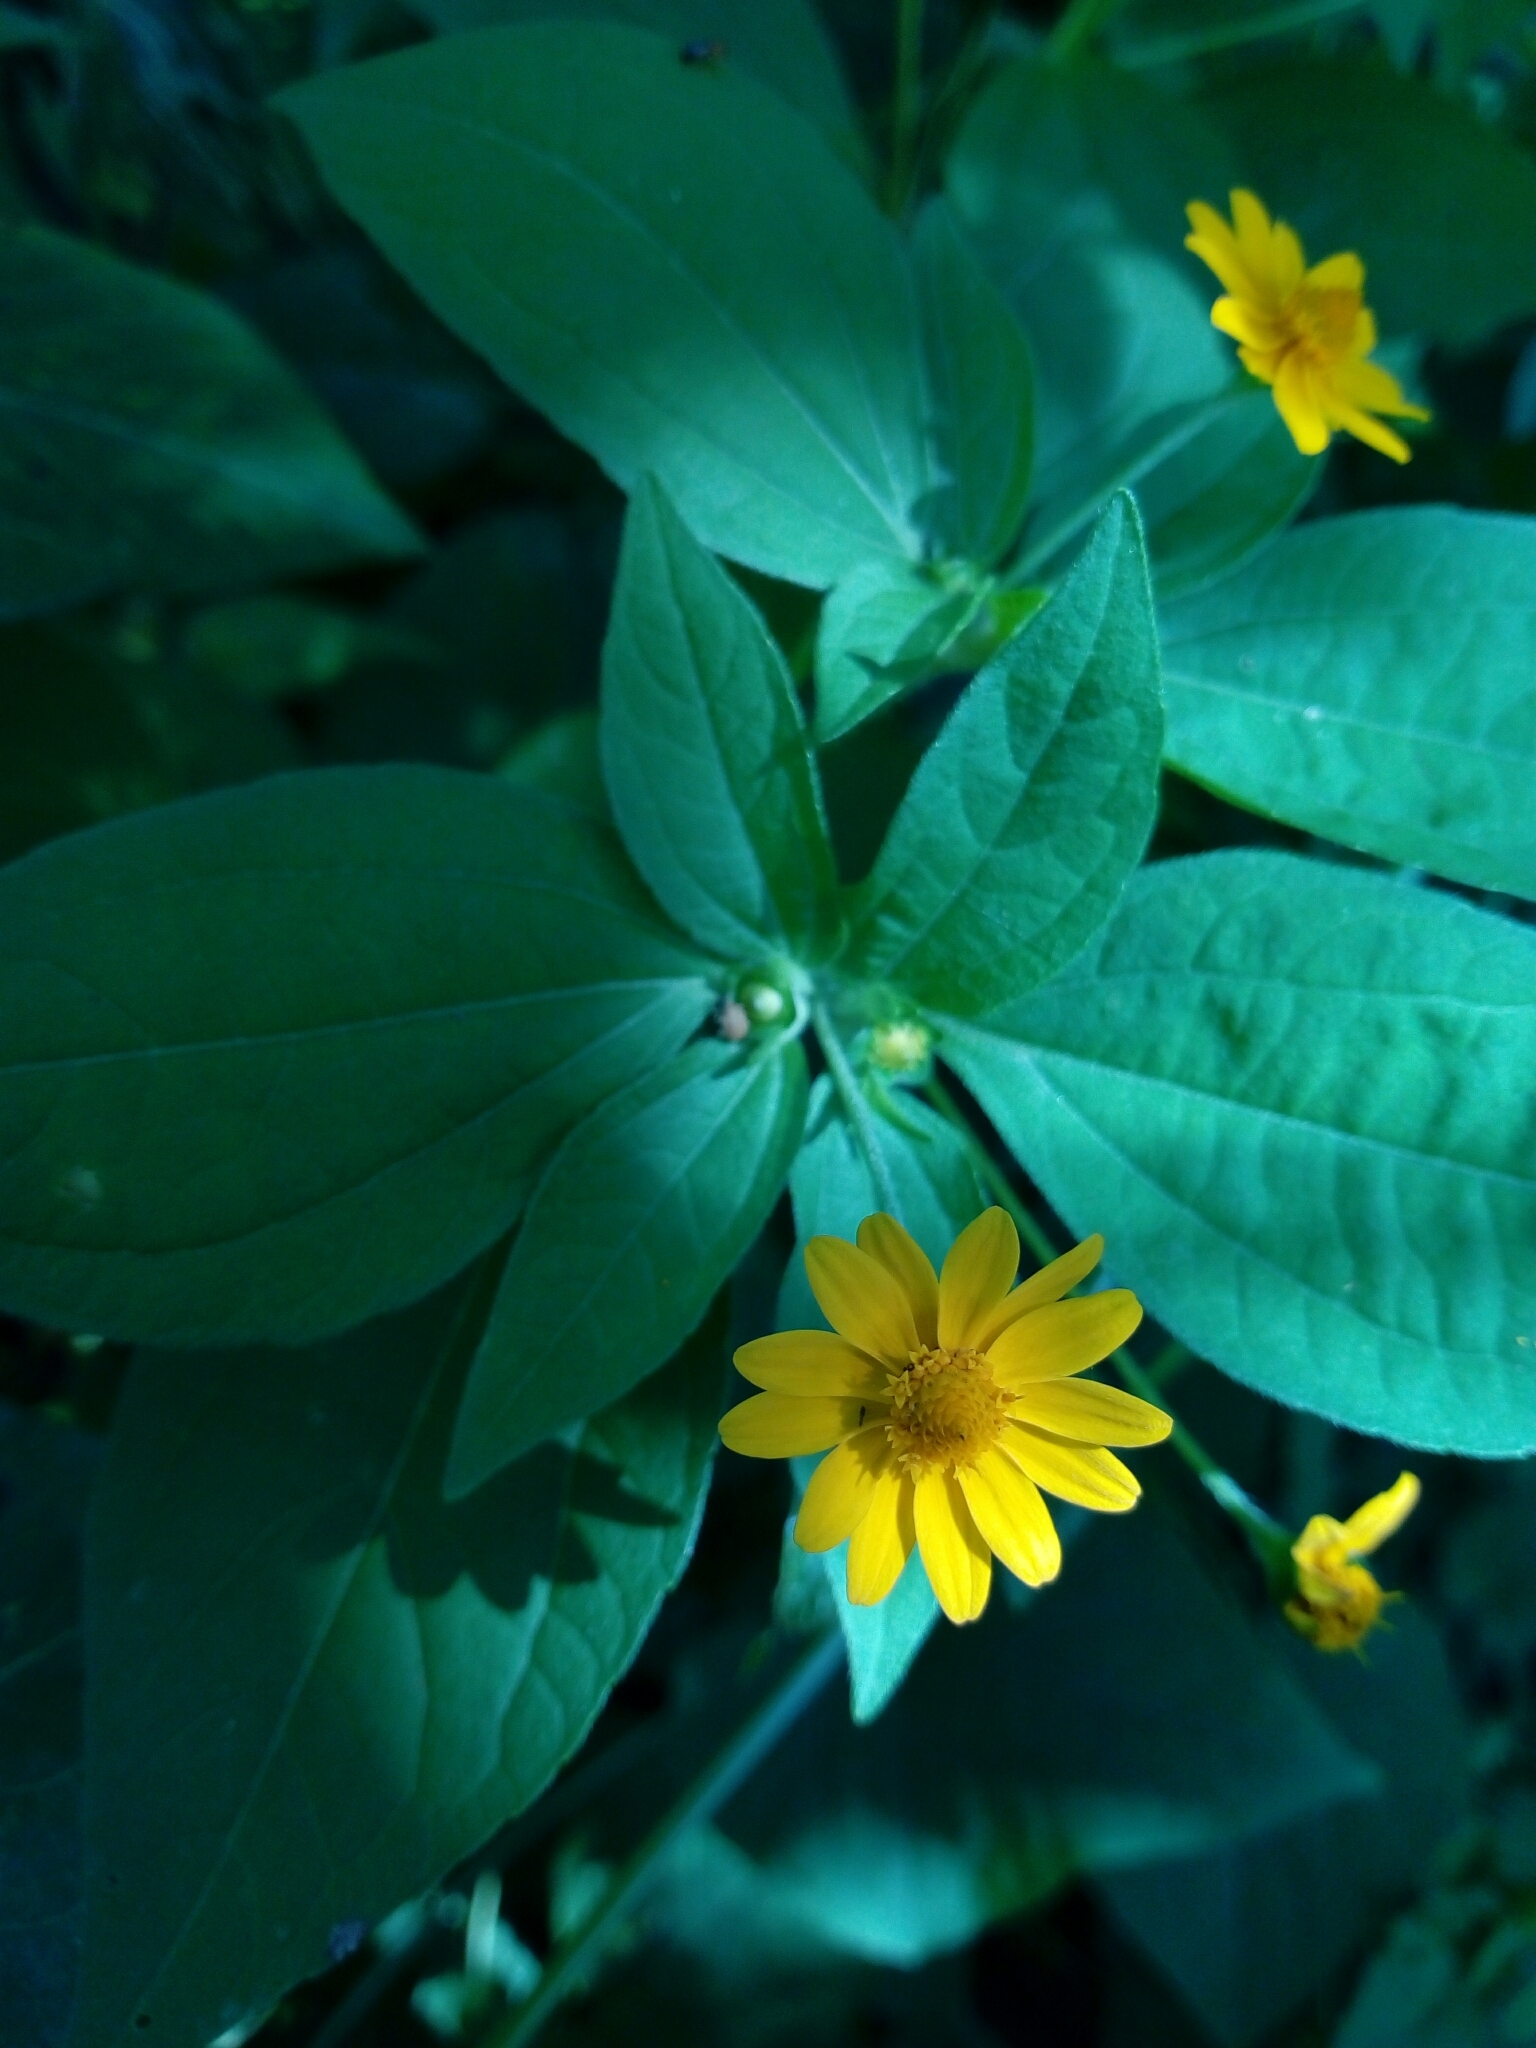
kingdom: Plantae
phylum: Tracheophyta
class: Magnoliopsida
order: Asterales
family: Asteraceae
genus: Melampodium
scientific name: Melampodium divaricatum
